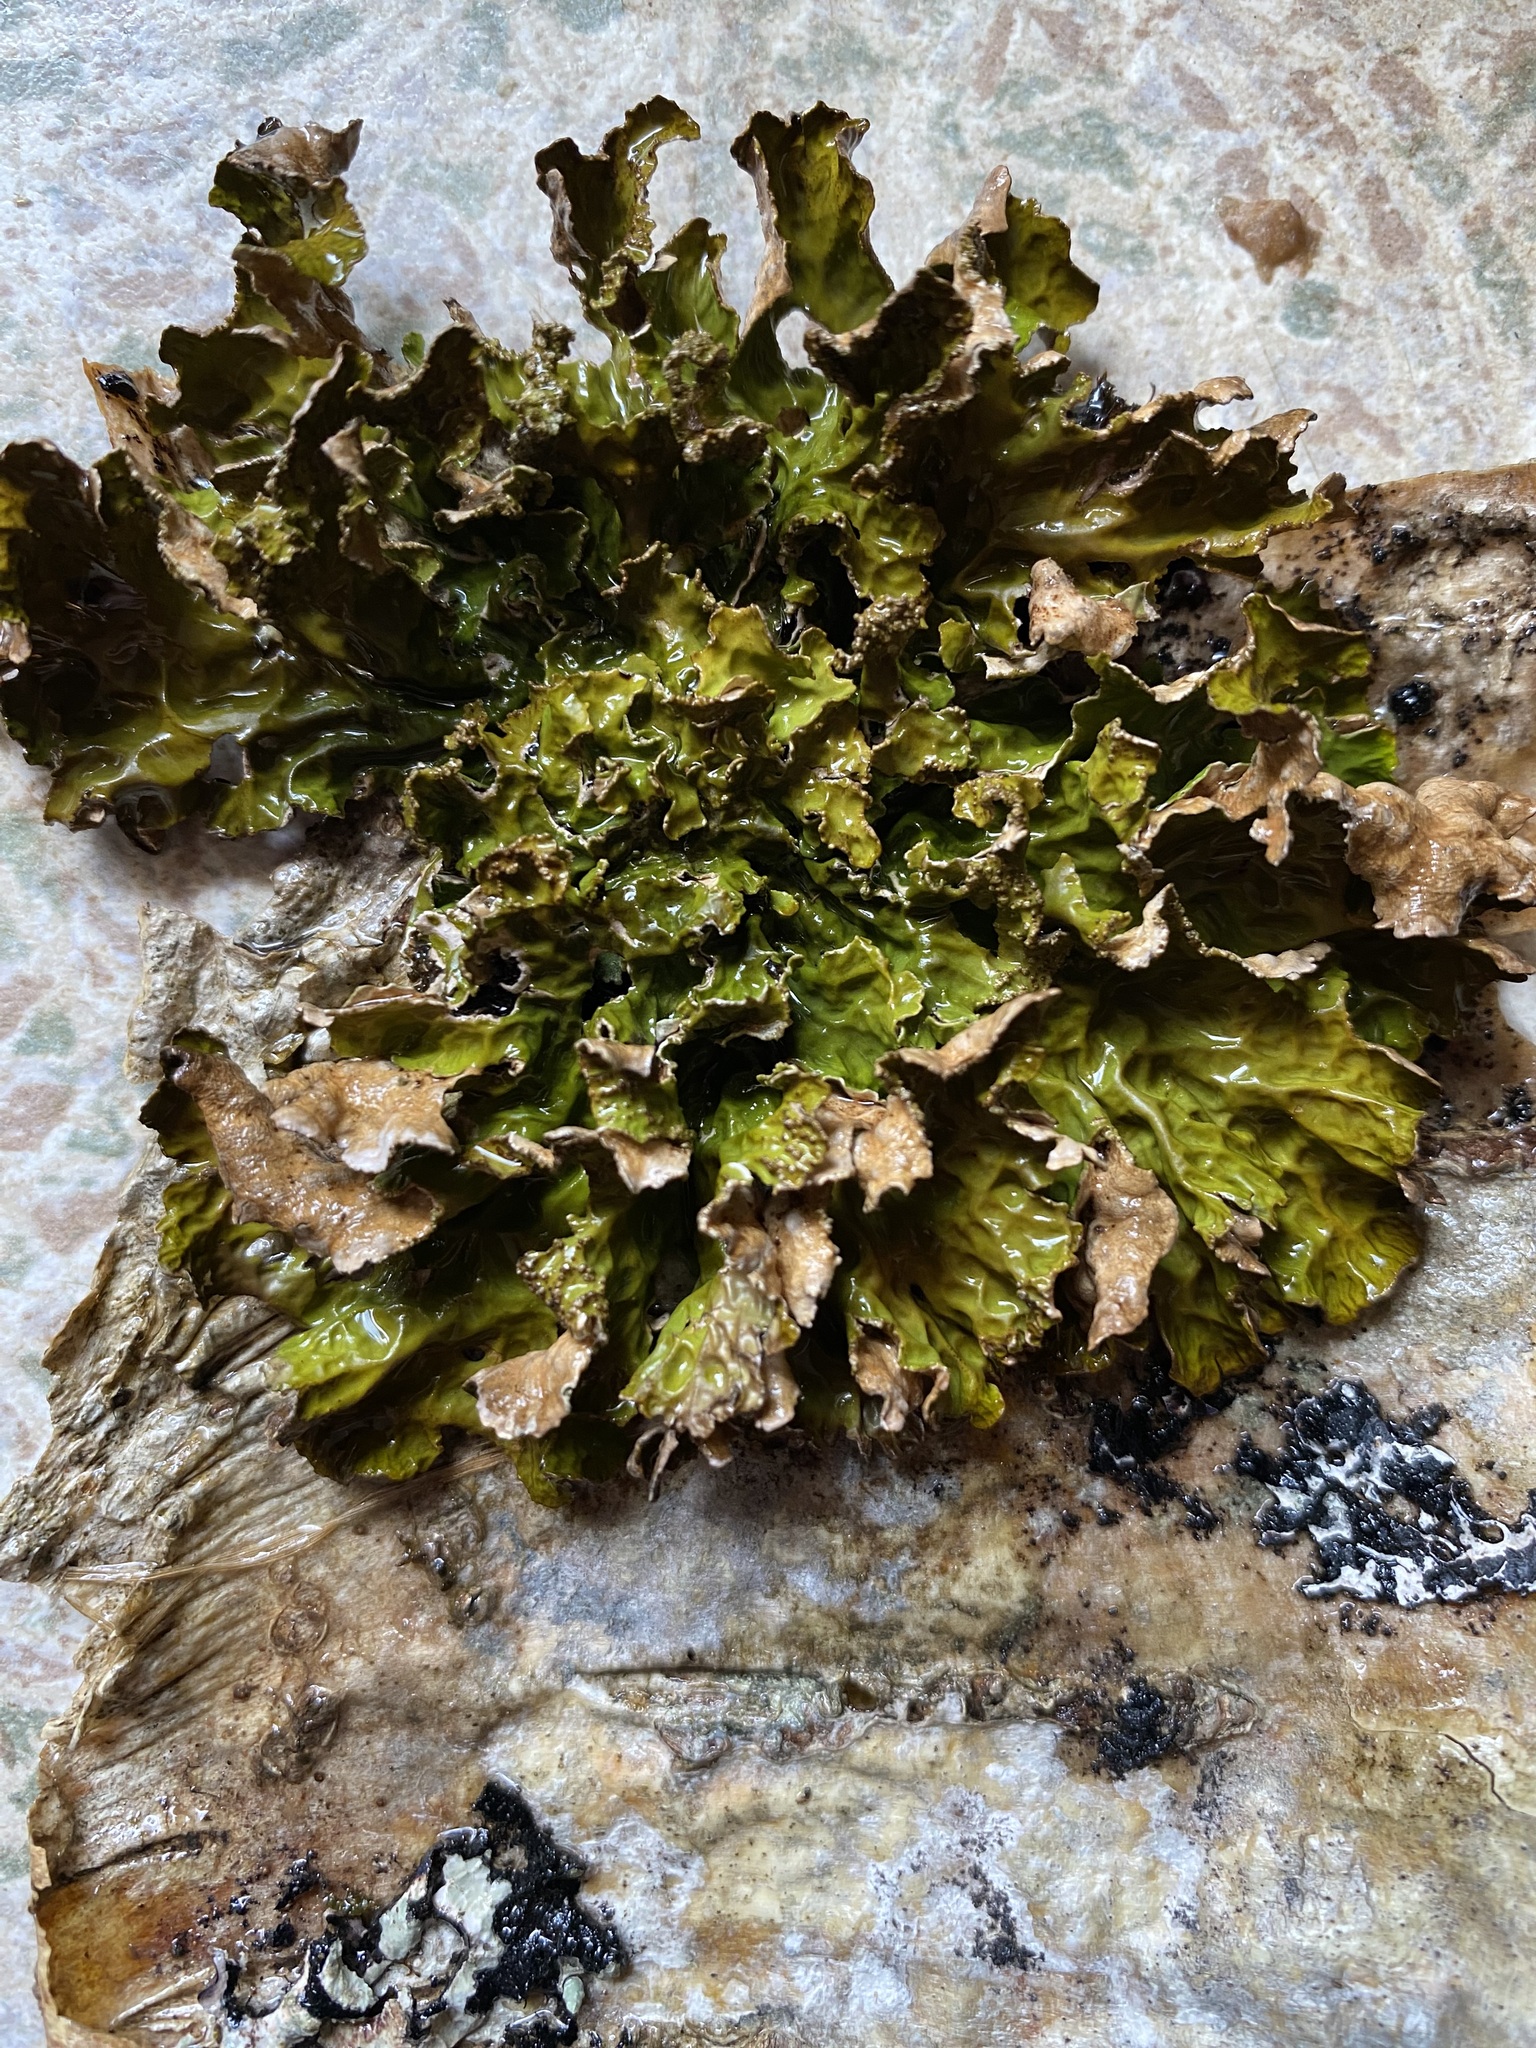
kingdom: Fungi
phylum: Ascomycota
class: Lecanoromycetes
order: Peltigerales
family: Lobariaceae
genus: Lobaria
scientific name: Lobaria pulmonaria
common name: Lungwort
